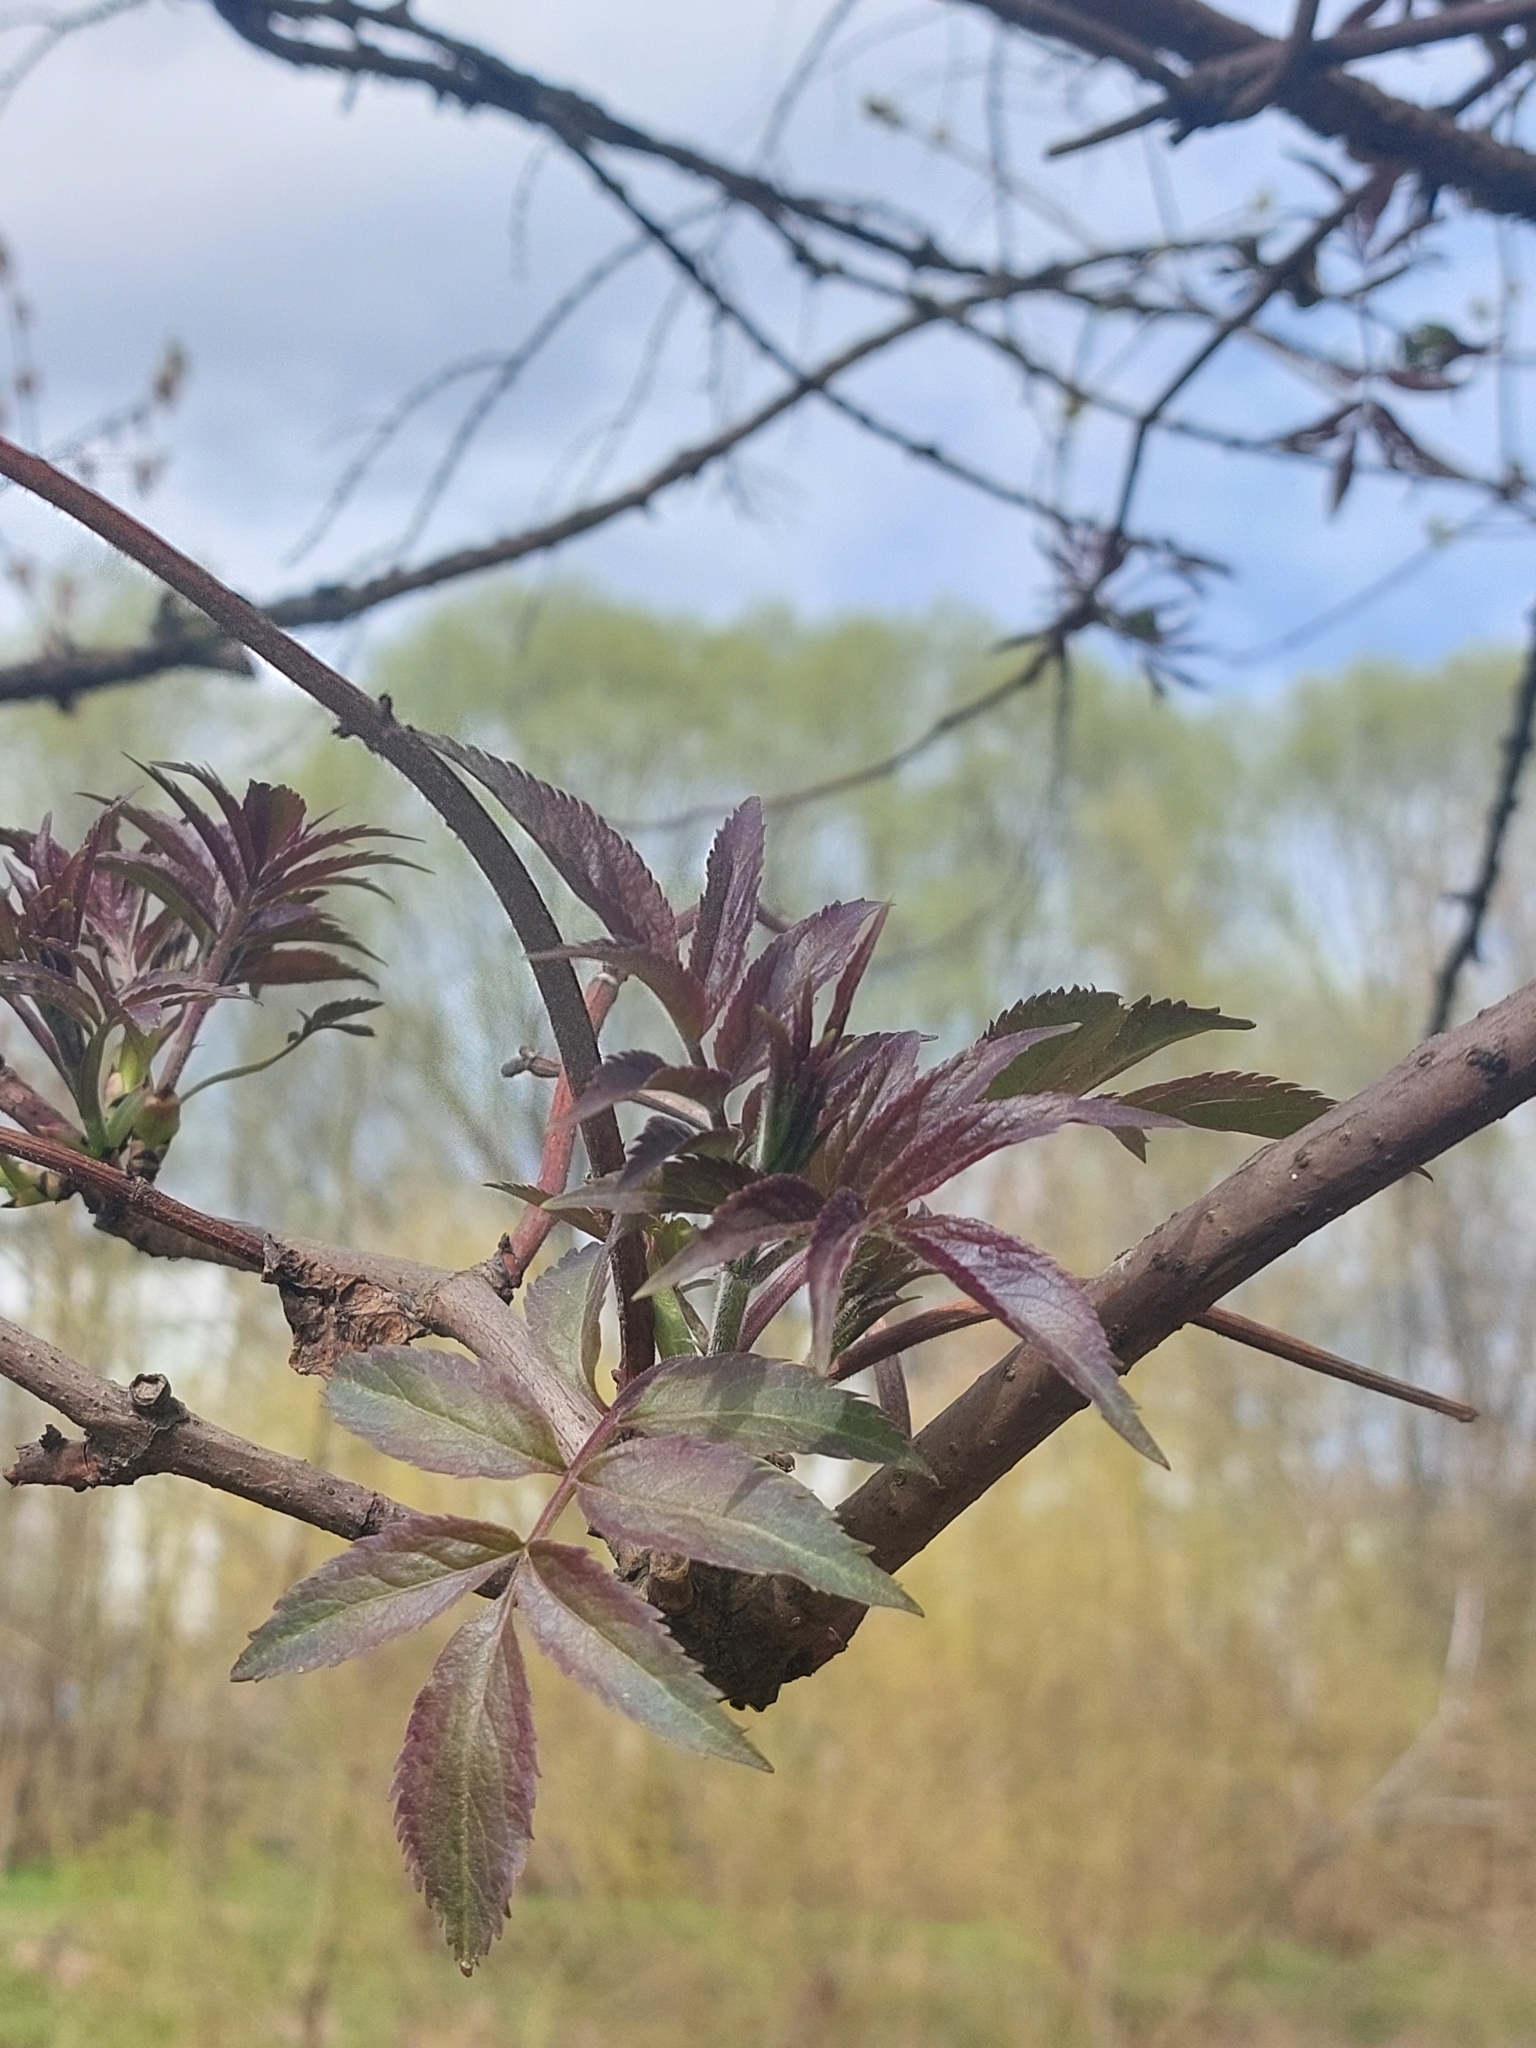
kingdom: Plantae
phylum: Tracheophyta
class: Magnoliopsida
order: Dipsacales
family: Viburnaceae
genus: Sambucus
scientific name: Sambucus racemosa
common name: Red-berried elder
